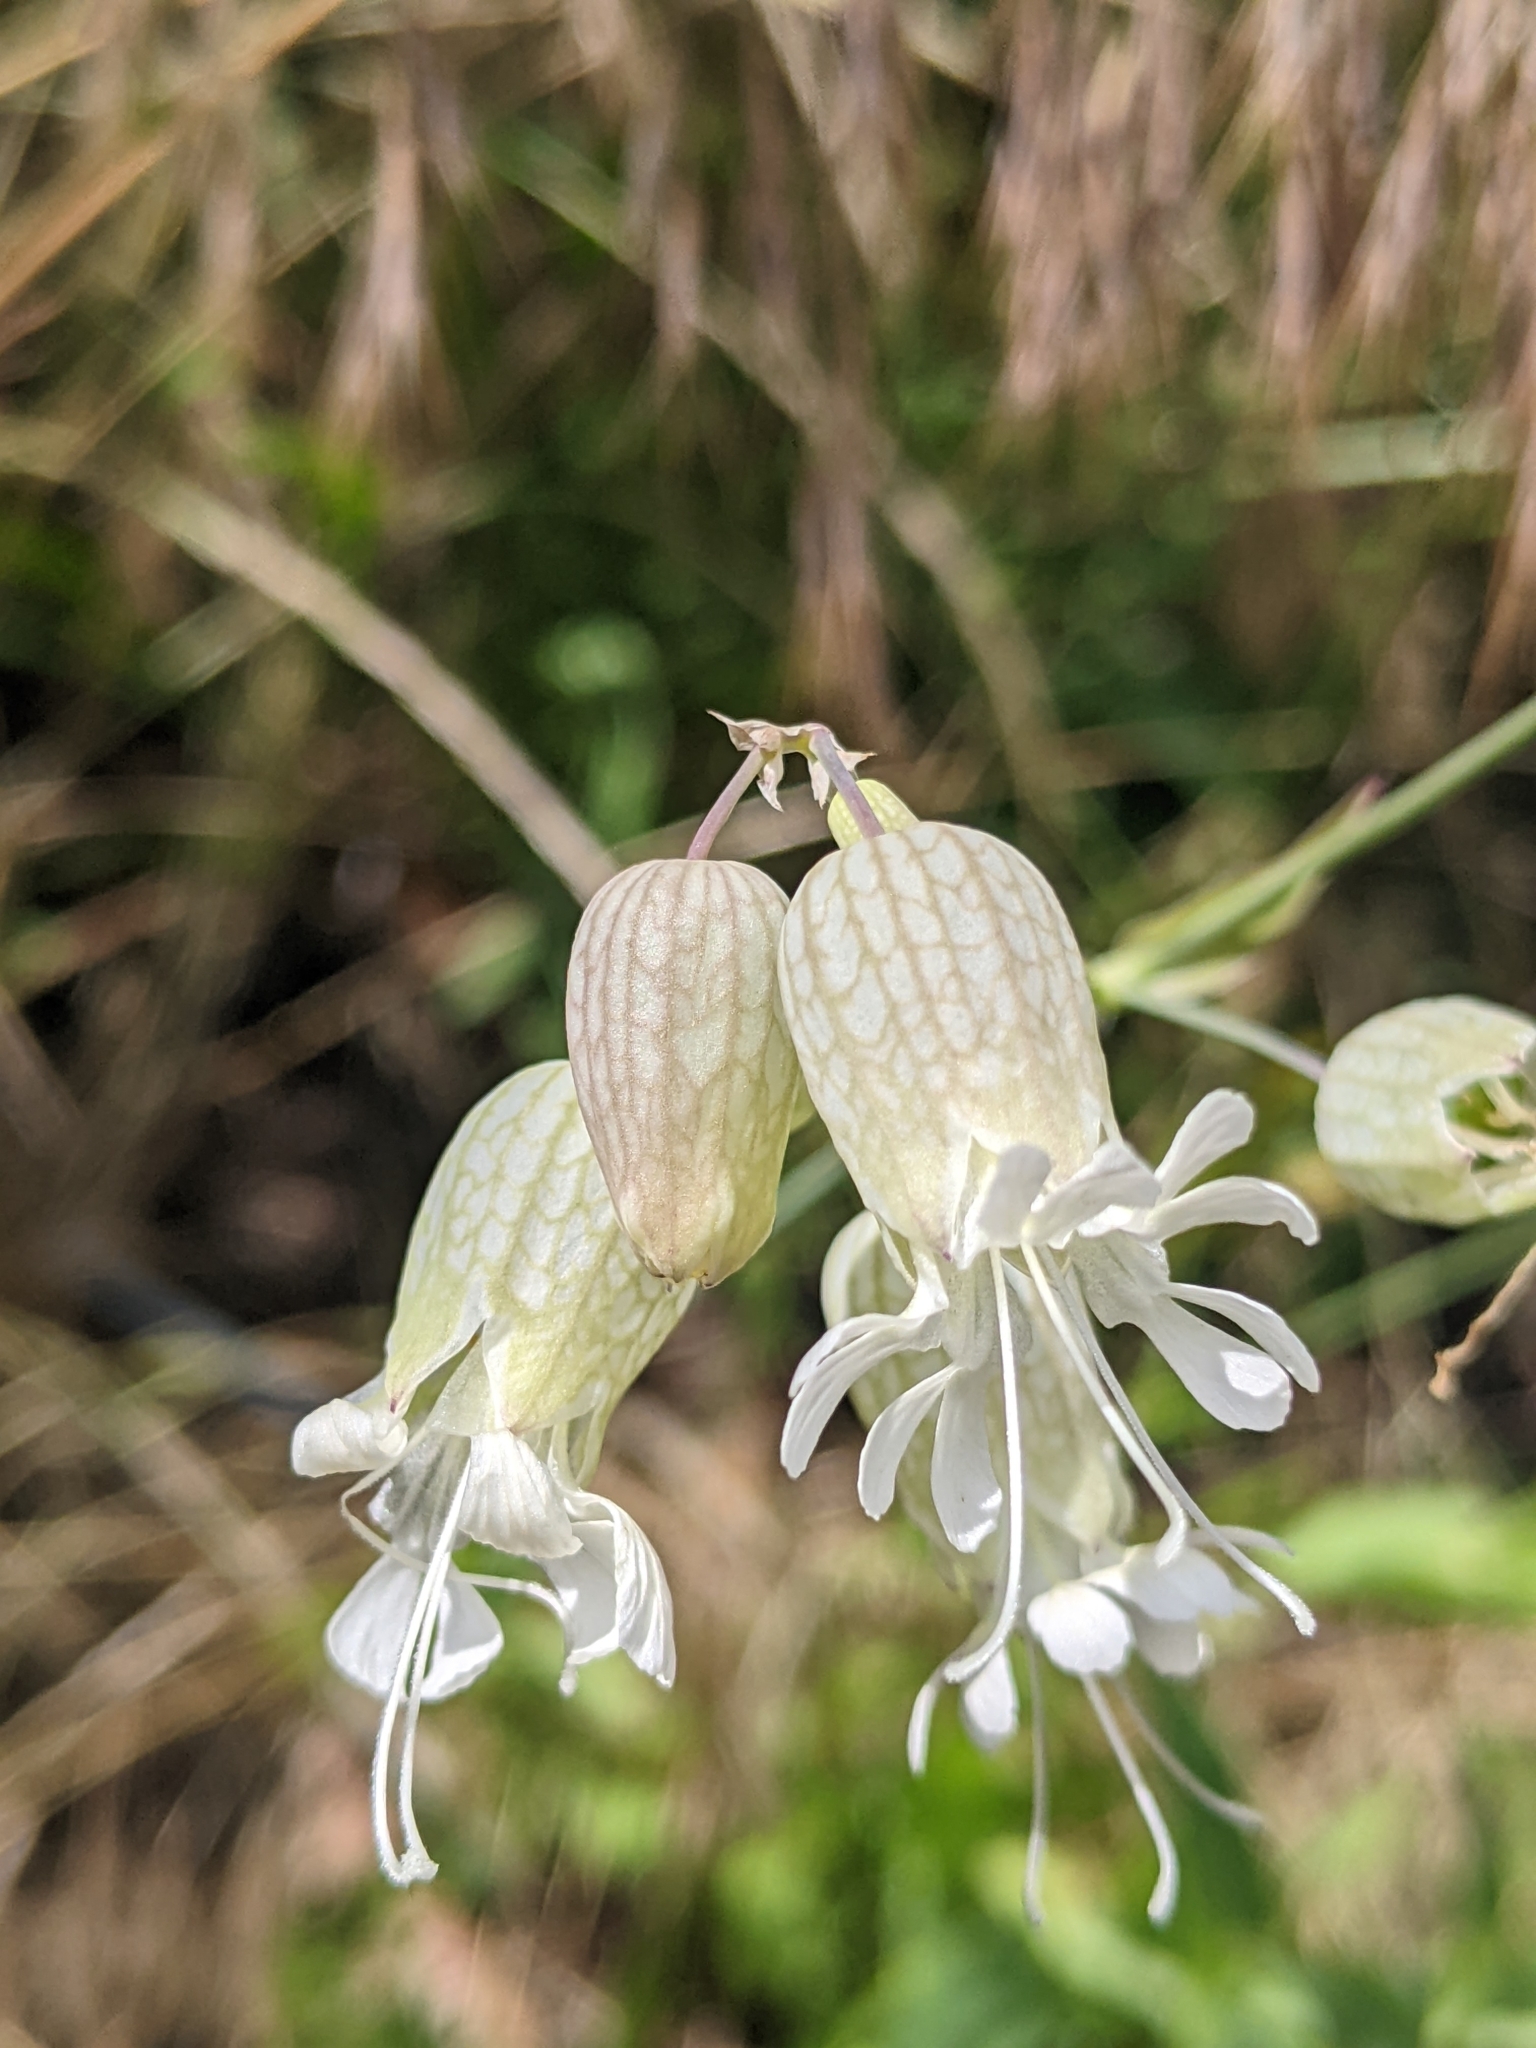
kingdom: Plantae
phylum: Tracheophyta
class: Magnoliopsida
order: Caryophyllales
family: Caryophyllaceae
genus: Silene
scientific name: Silene vulgaris
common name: Bladder campion
